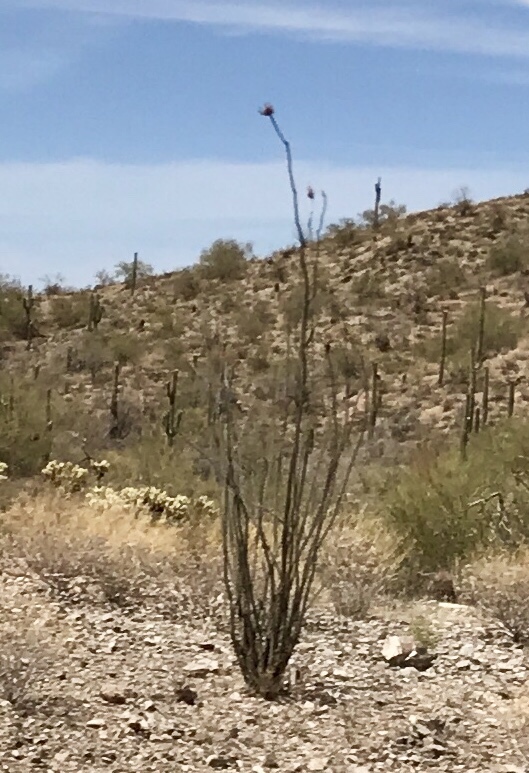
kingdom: Plantae
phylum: Tracheophyta
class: Magnoliopsida
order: Ericales
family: Fouquieriaceae
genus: Fouquieria
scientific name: Fouquieria splendens
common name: Vine-cactus
